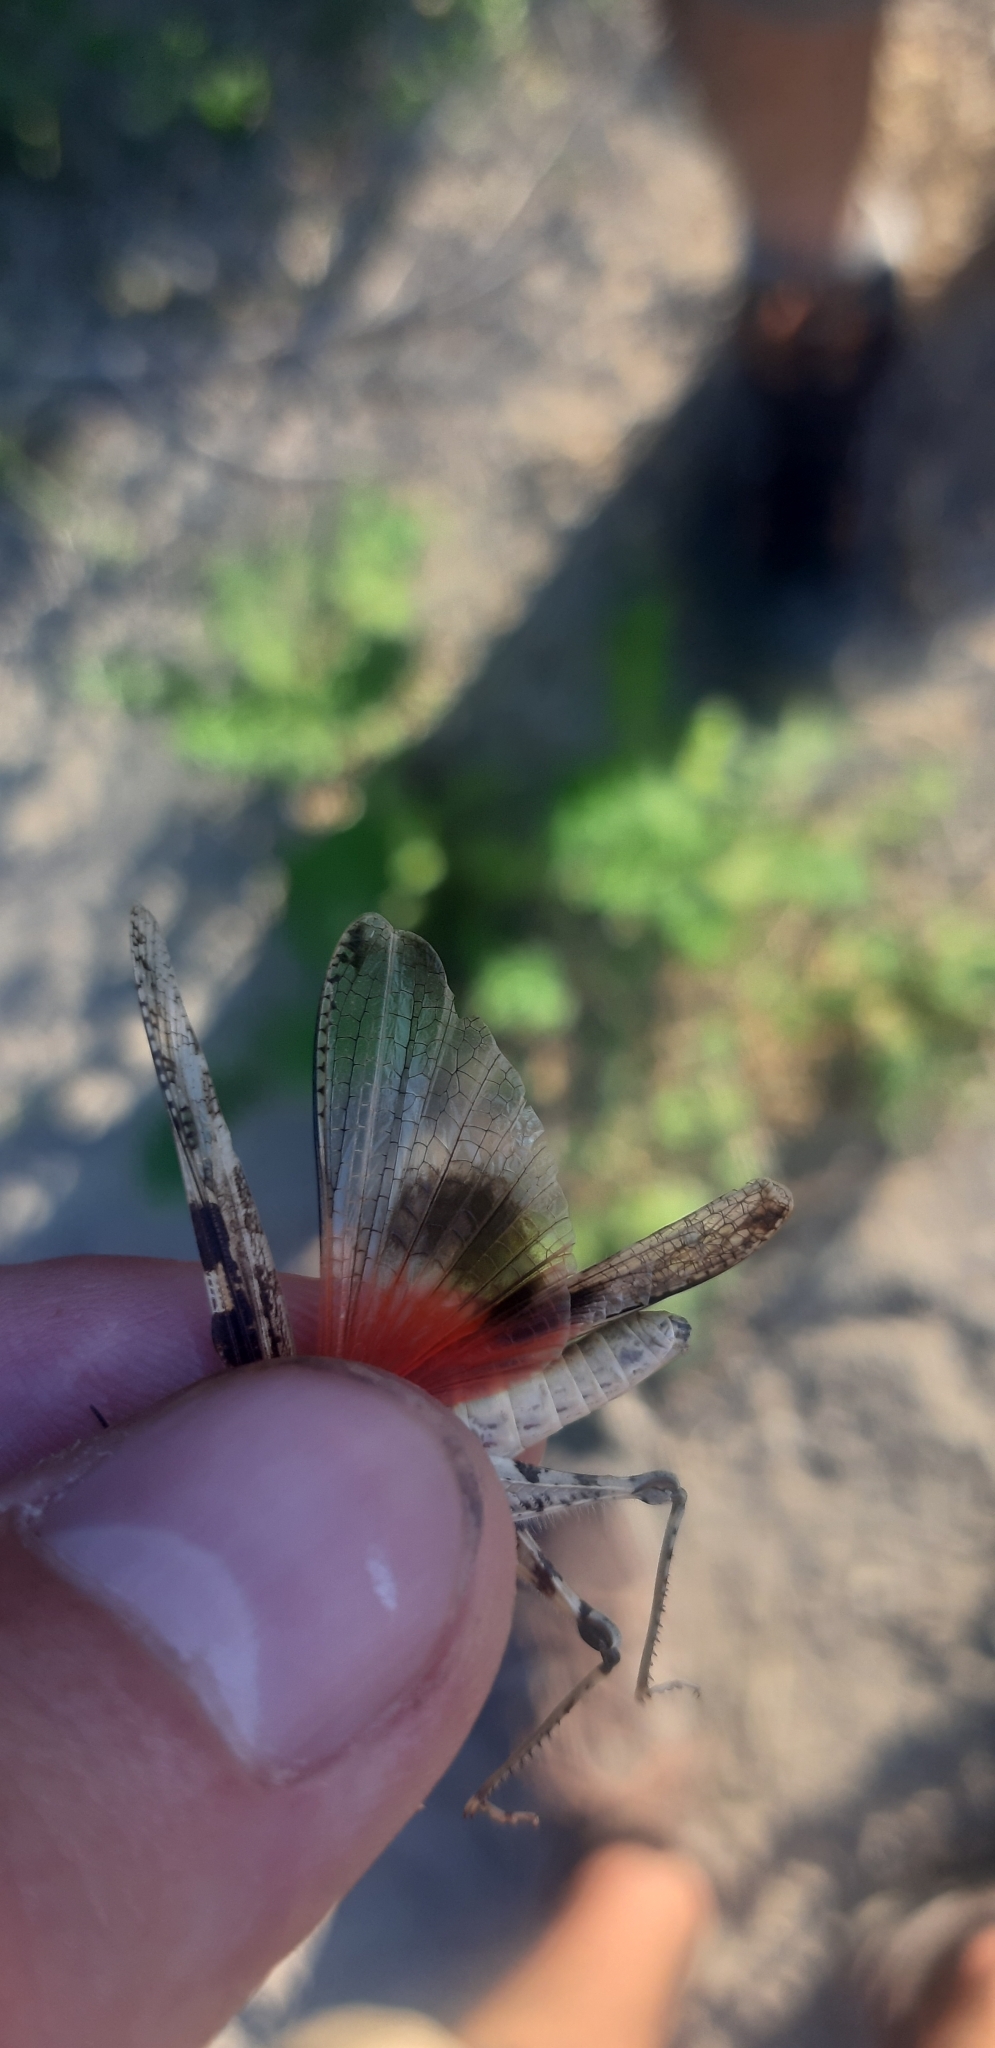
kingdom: Animalia
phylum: Arthropoda
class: Insecta
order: Orthoptera
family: Acrididae
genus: Acrotylus
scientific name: Acrotylus patruelis
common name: Slender burrowing grasshopper
